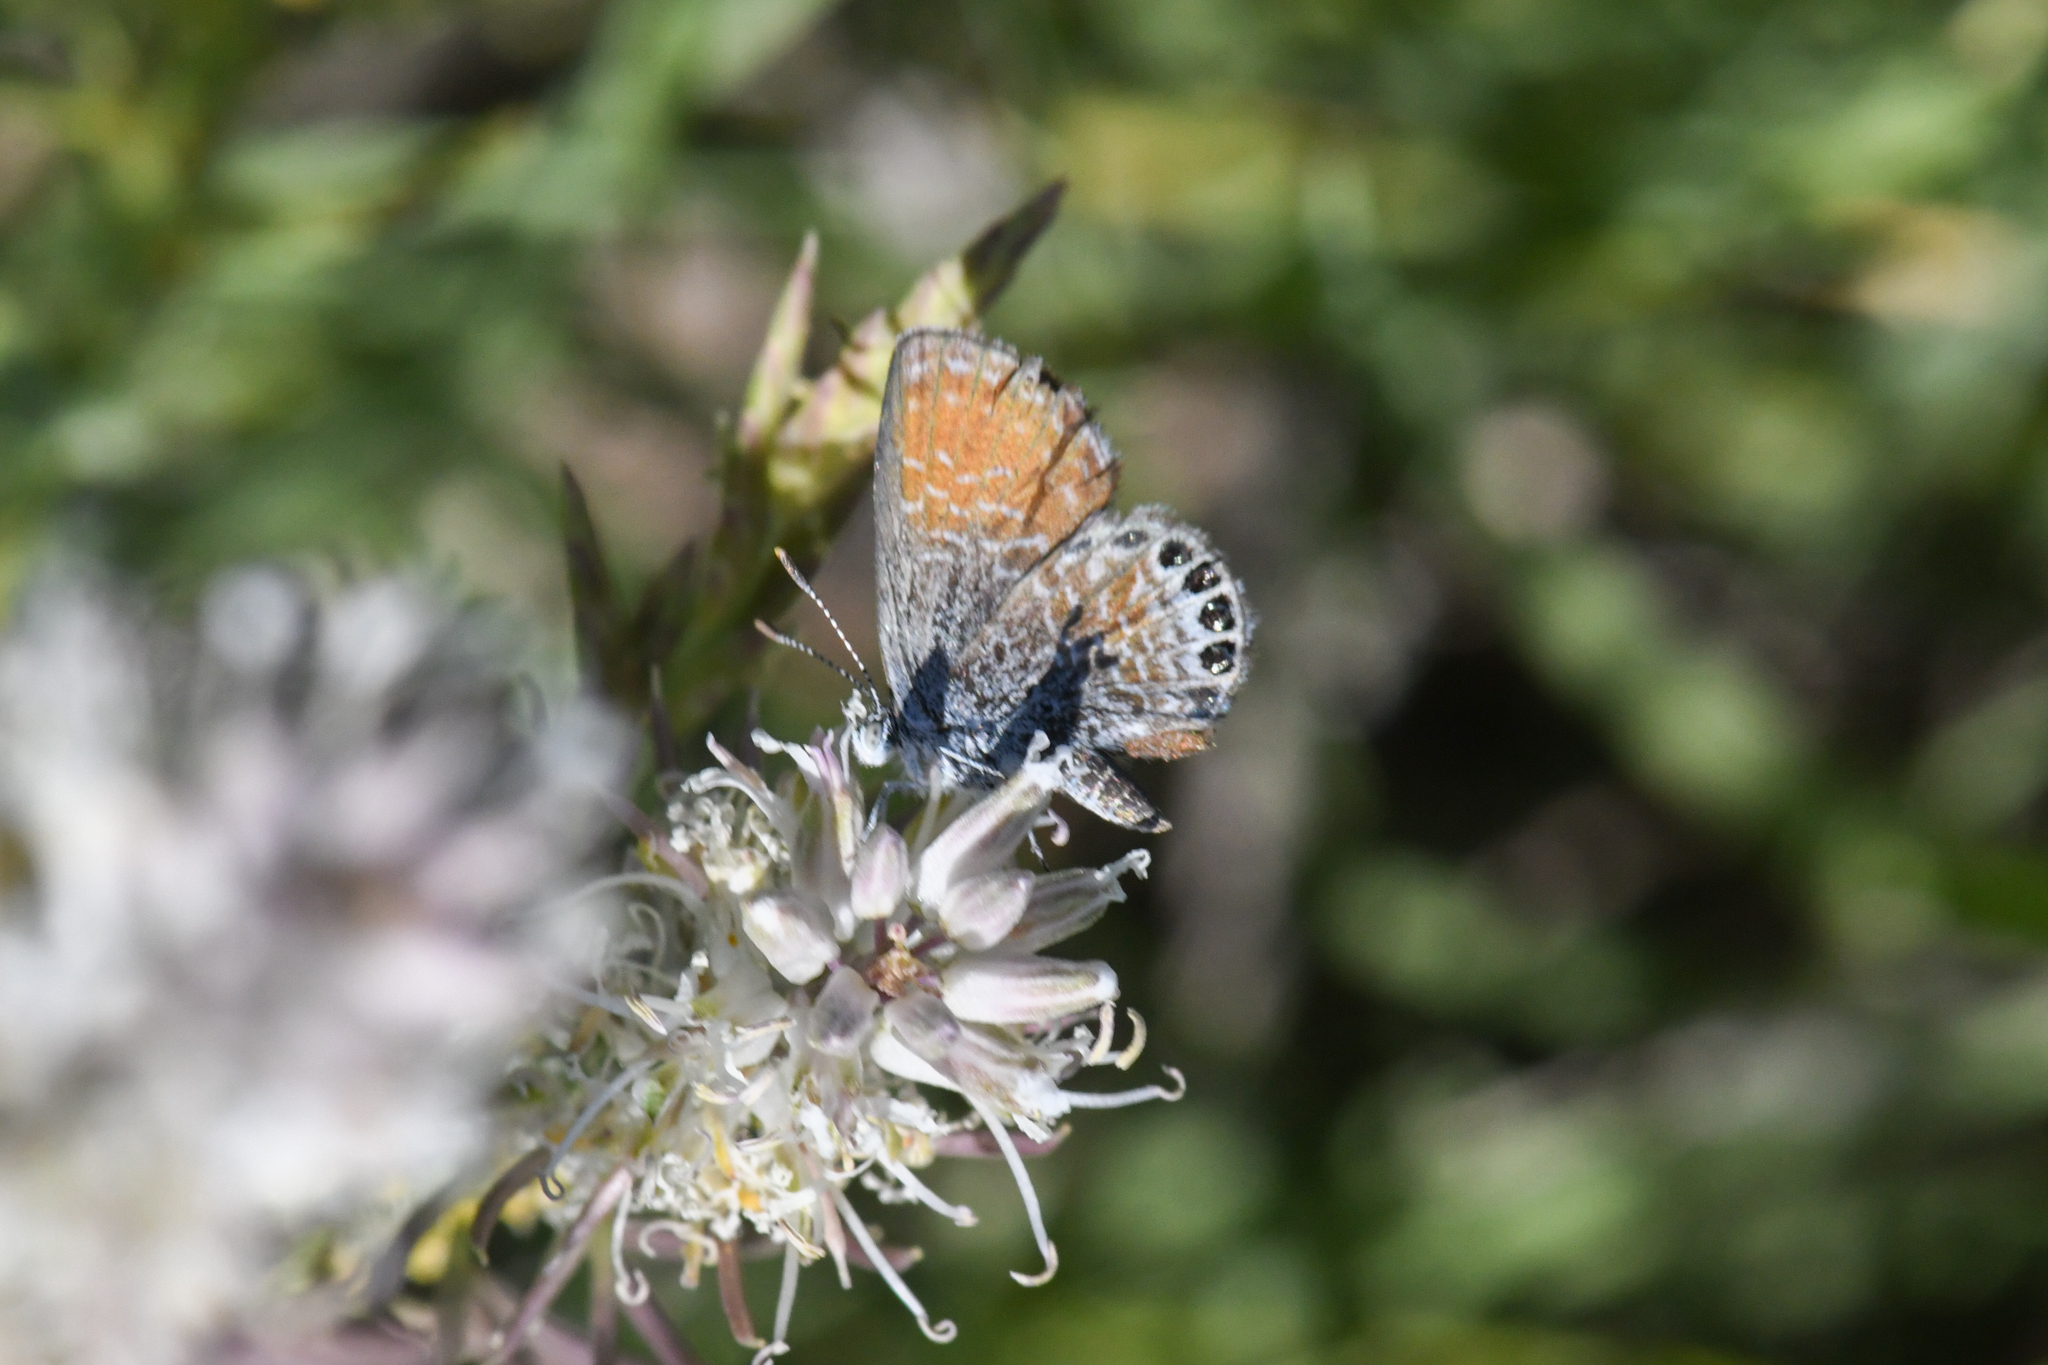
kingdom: Animalia
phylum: Arthropoda
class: Insecta
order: Lepidoptera
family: Lycaenidae
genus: Brephidium
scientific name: Brephidium exilis
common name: Pygmy blue
